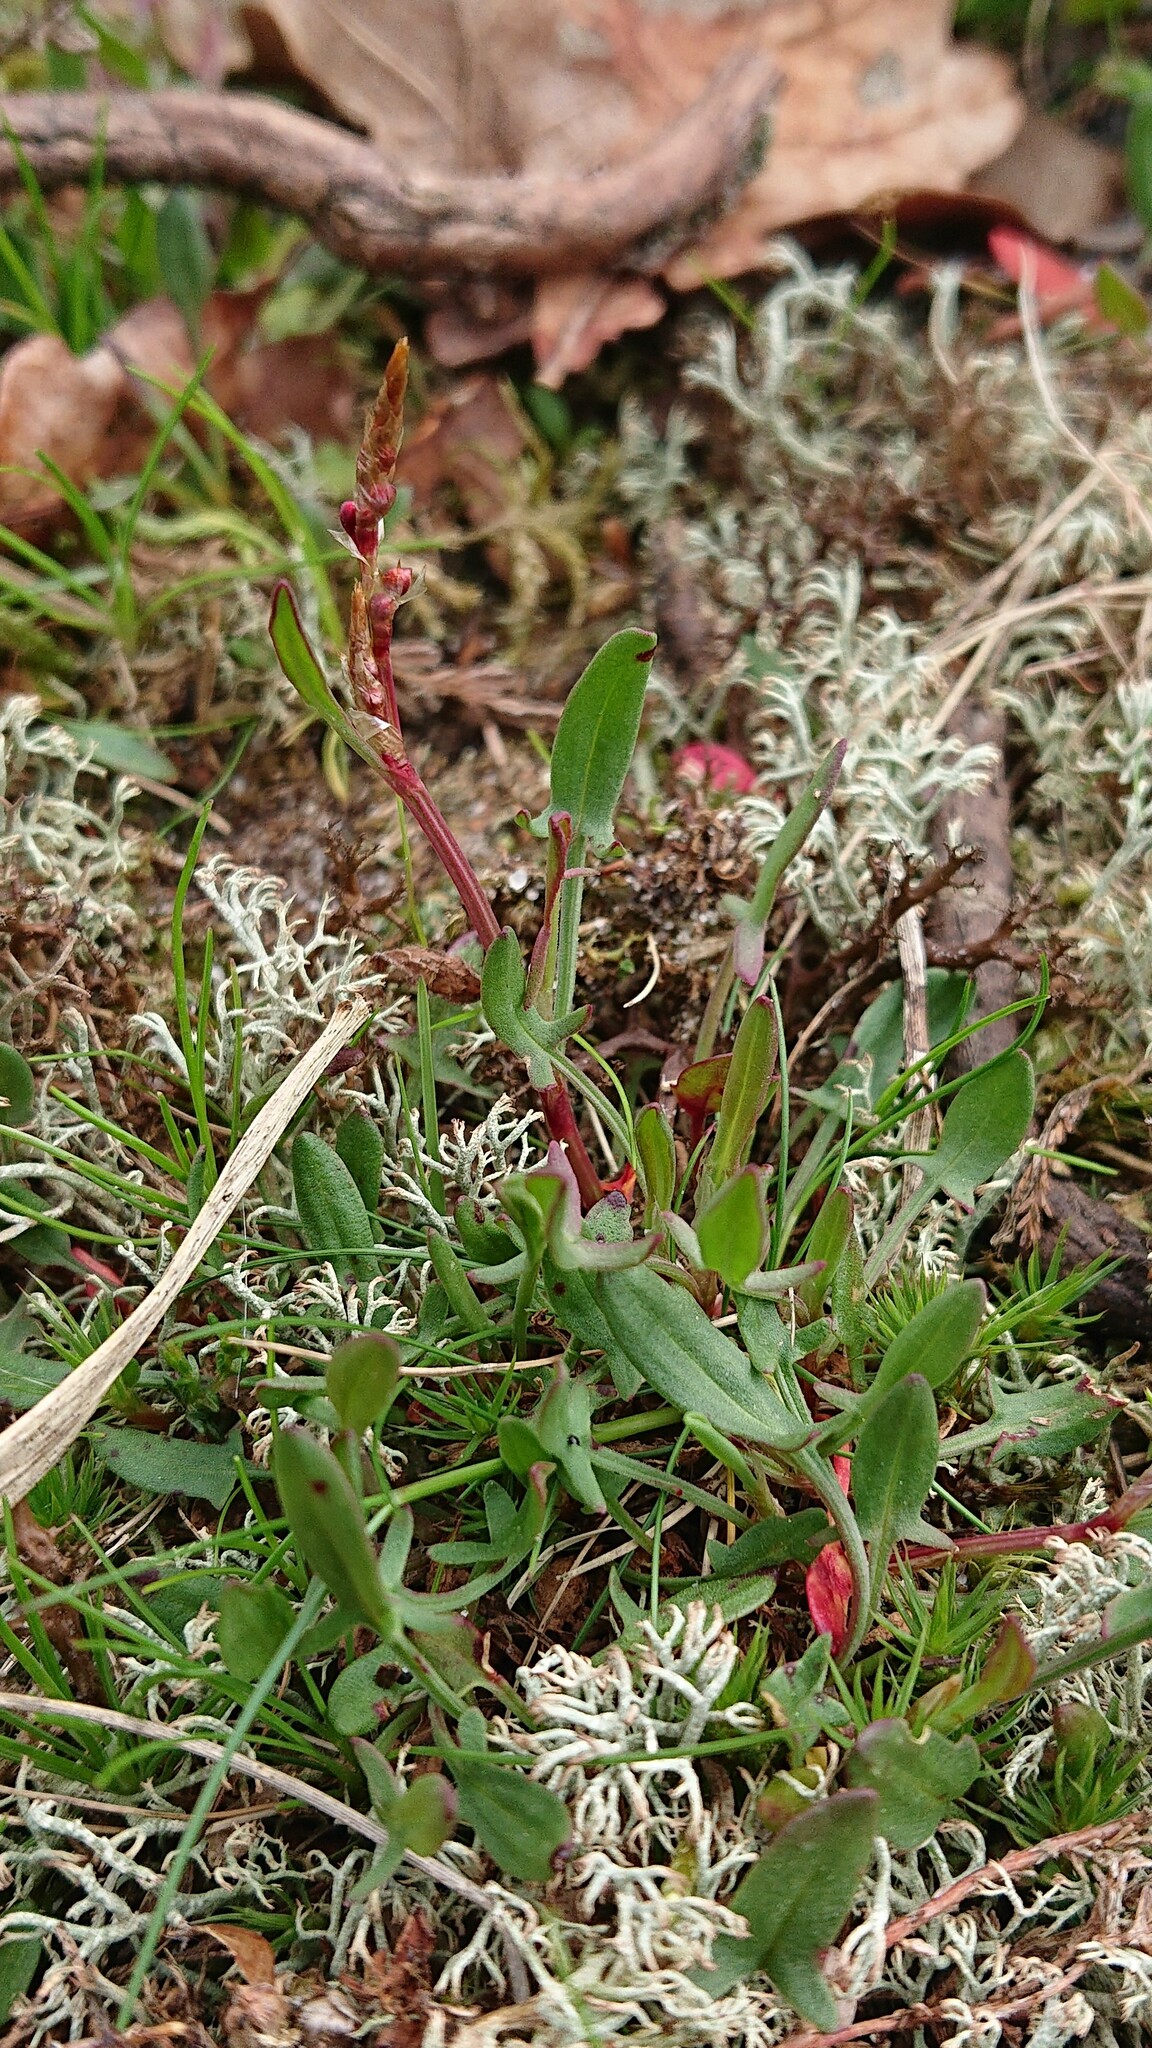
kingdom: Plantae
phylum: Tracheophyta
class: Magnoliopsida
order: Caryophyllales
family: Polygonaceae
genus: Rumex
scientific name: Rumex acetosella
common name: Common sheep sorrel
